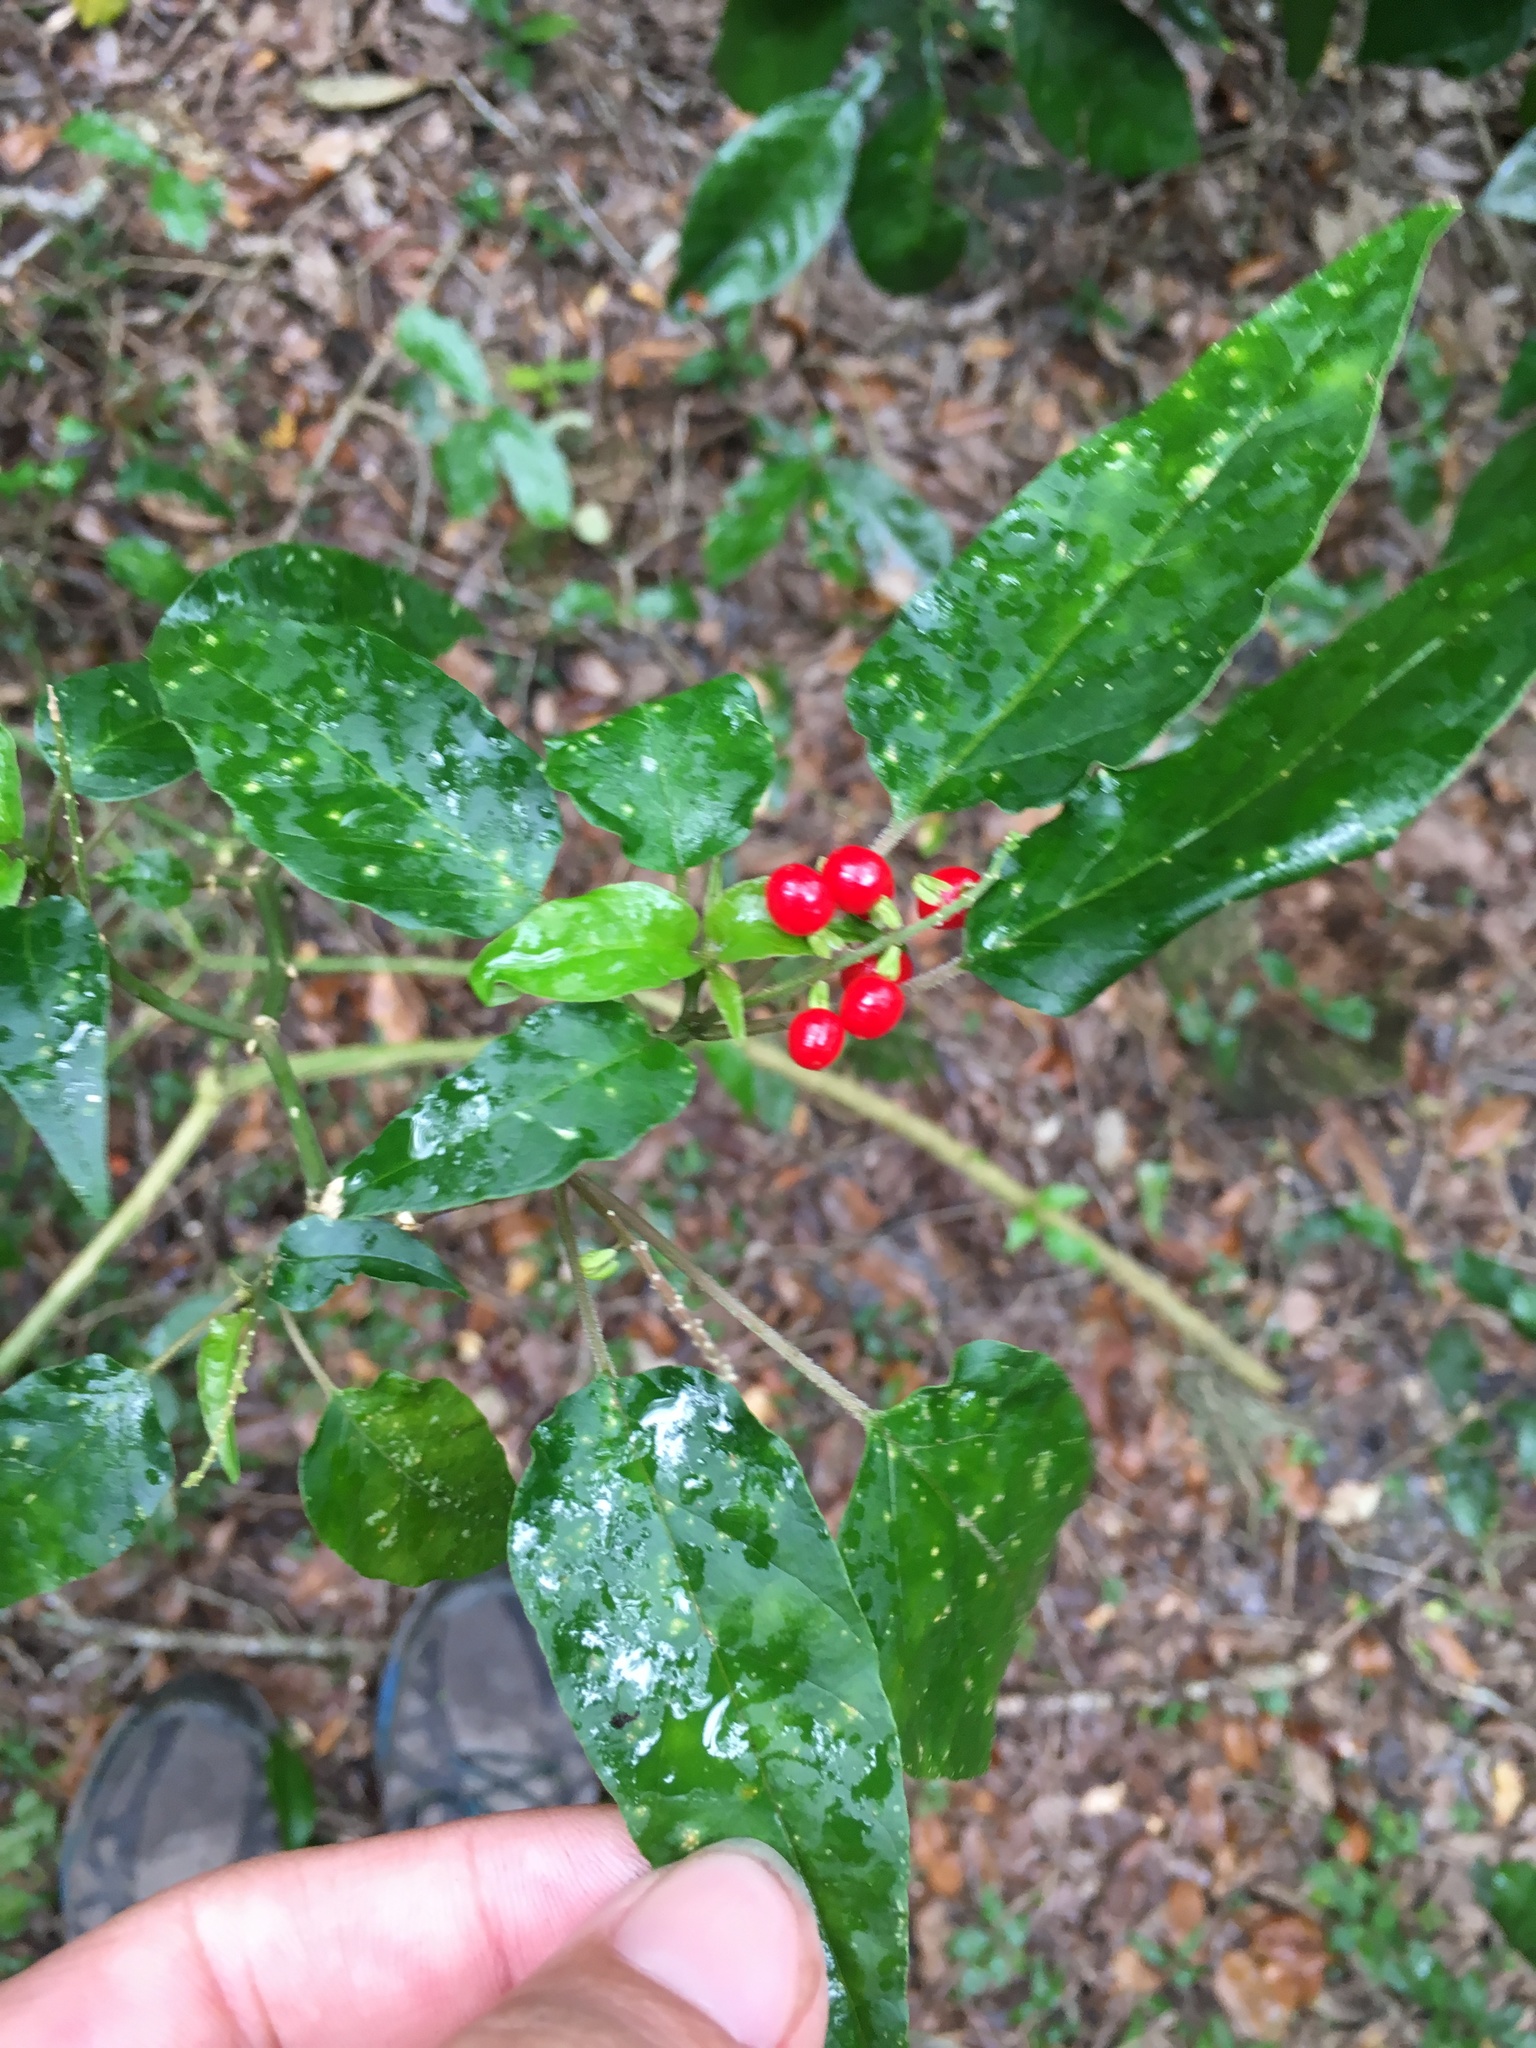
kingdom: Plantae
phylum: Tracheophyta
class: Magnoliopsida
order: Caryophyllales
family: Phytolaccaceae
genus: Rivina
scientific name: Rivina humilis
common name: Rougeplant
